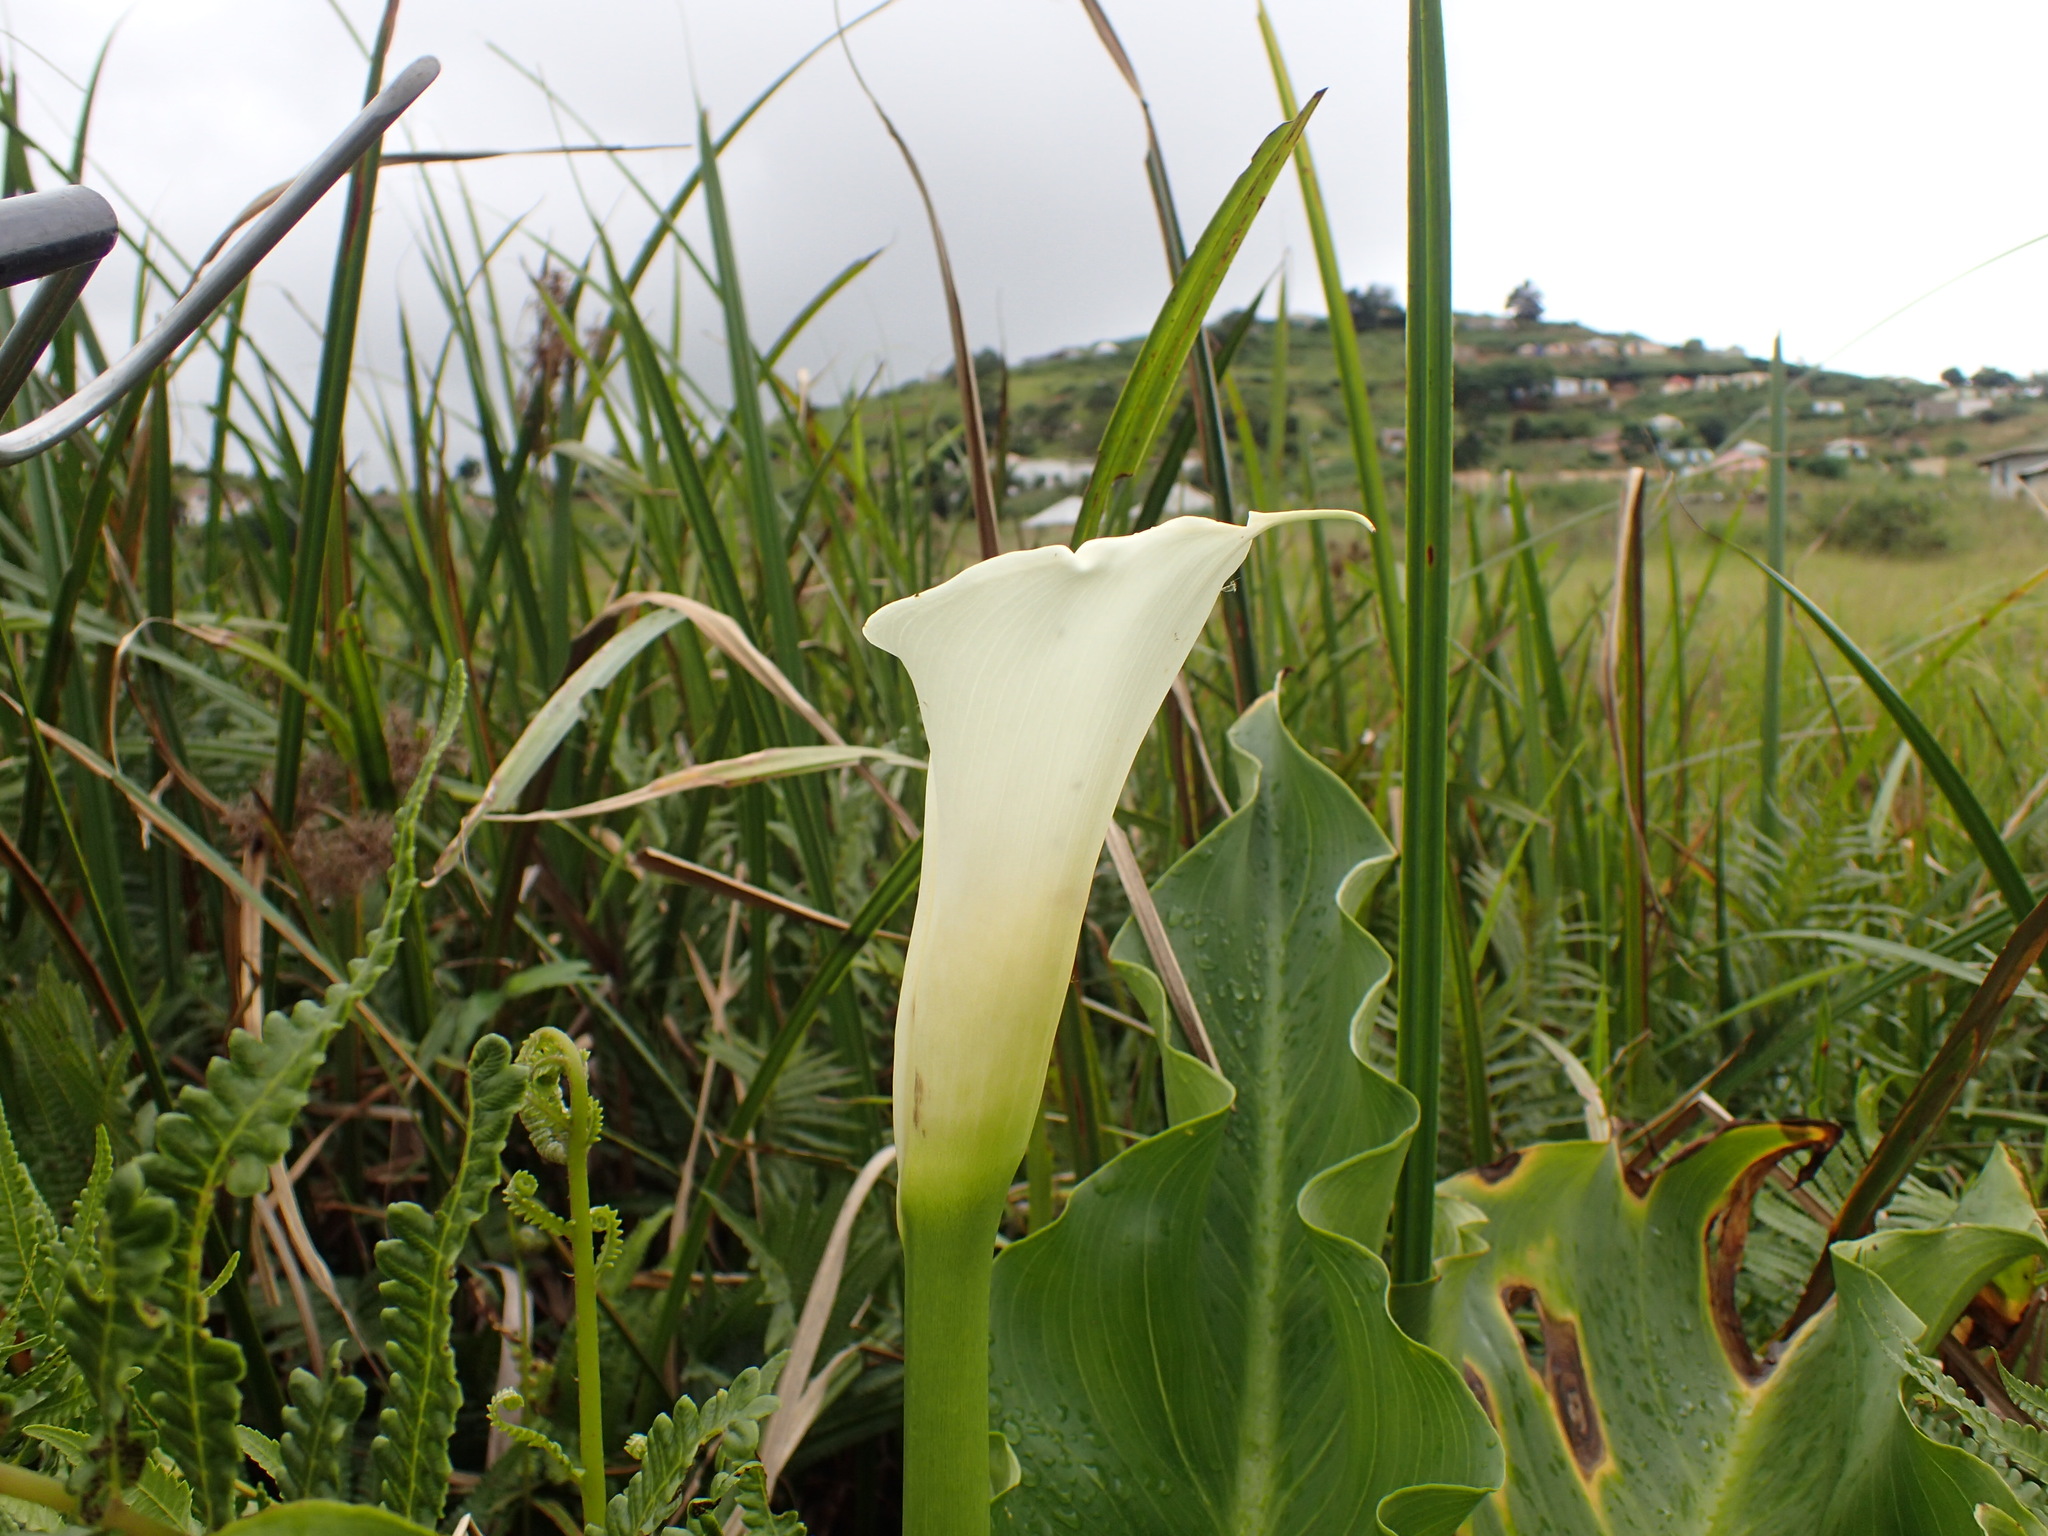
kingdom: Plantae
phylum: Tracheophyta
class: Liliopsida
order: Alismatales
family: Araceae
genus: Zantedeschia
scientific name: Zantedeschia aethiopica
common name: Altar-lily
